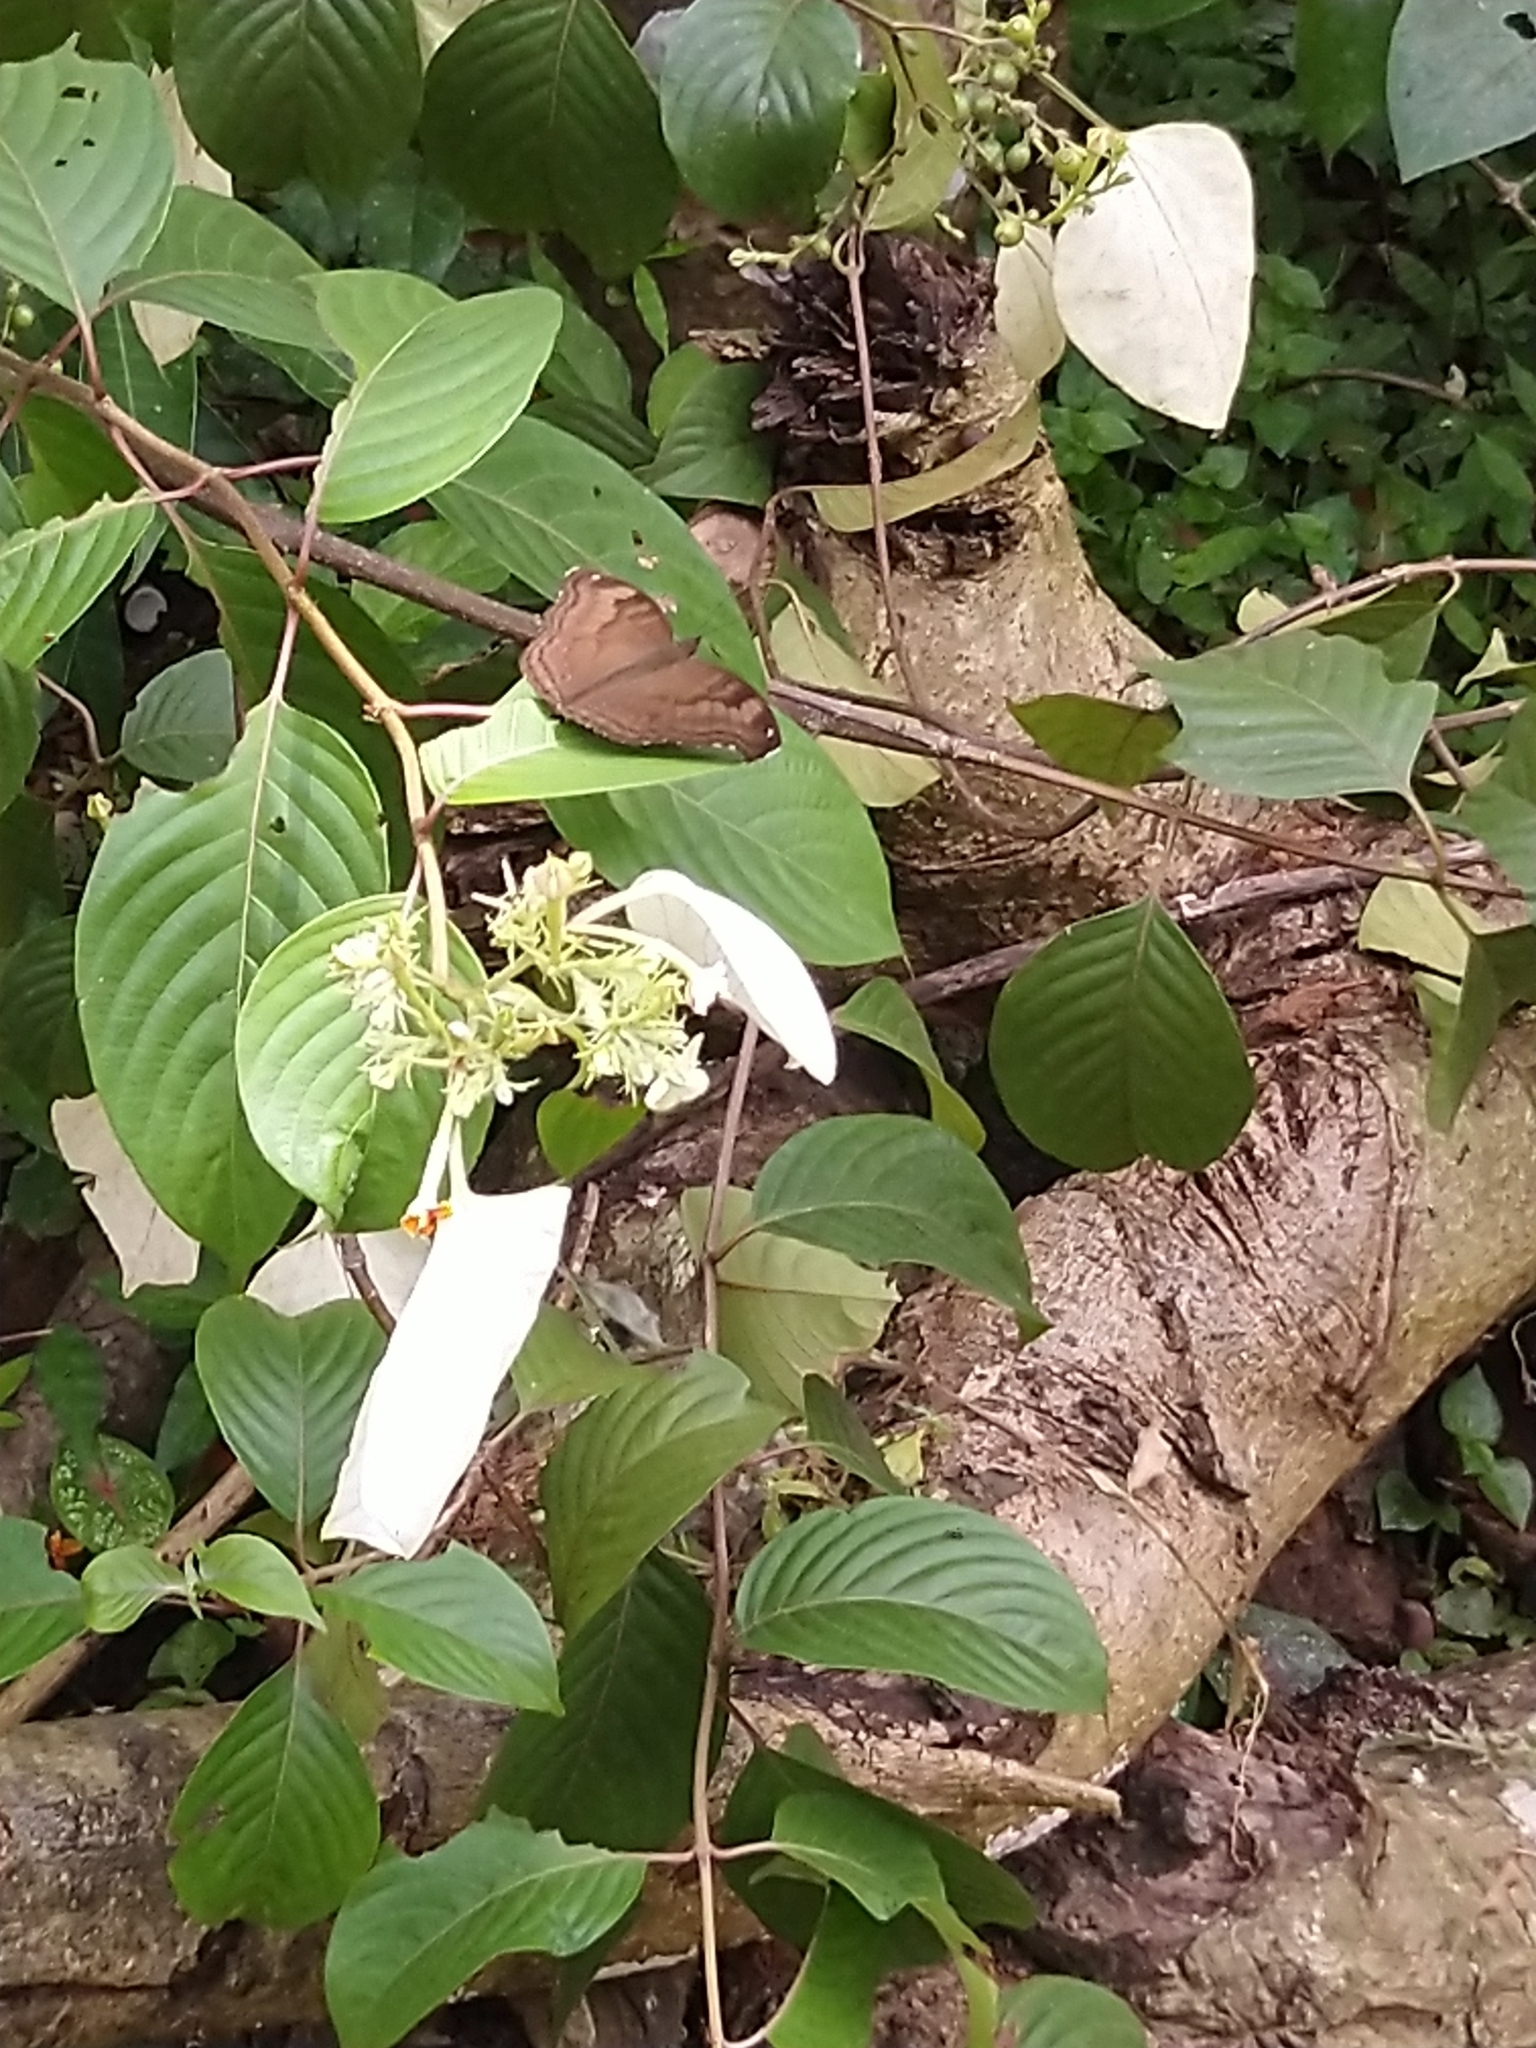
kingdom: Animalia
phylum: Arthropoda
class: Insecta
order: Lepidoptera
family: Nymphalidae
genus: Junonia
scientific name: Junonia iphita
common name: Chocolate pansy
